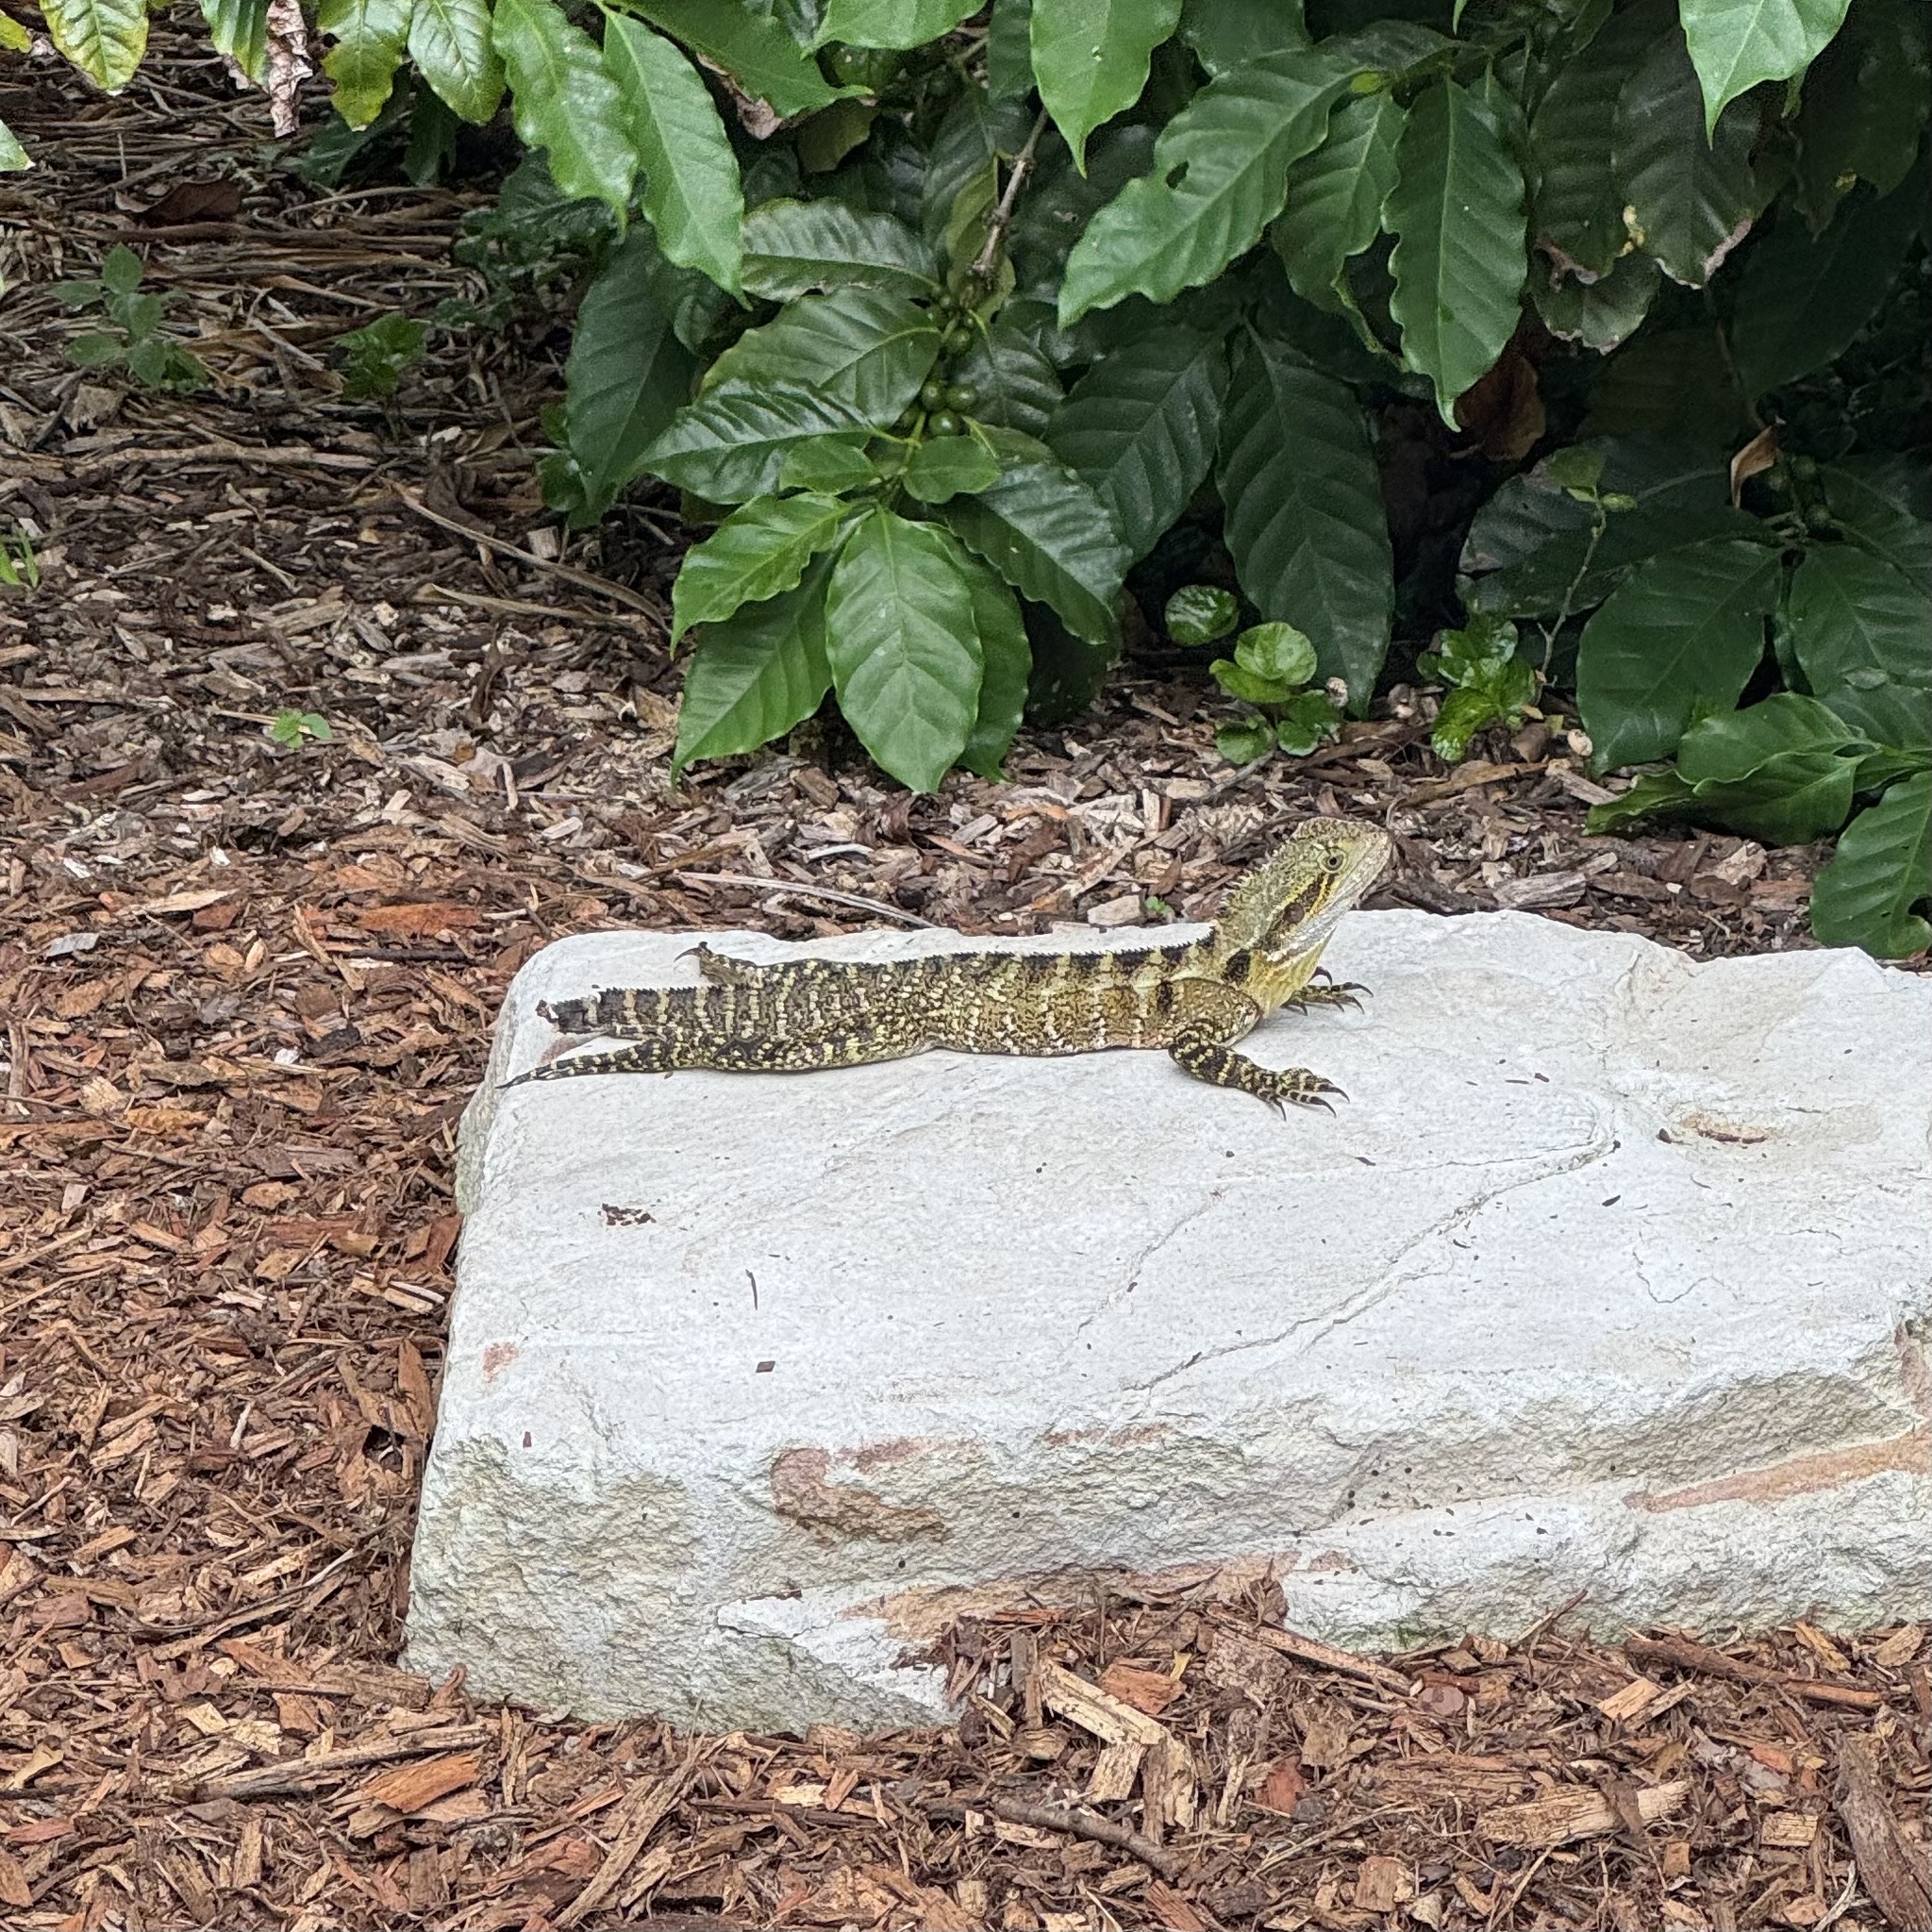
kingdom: Animalia
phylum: Chordata
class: Squamata
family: Agamidae
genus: Intellagama
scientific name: Intellagama lesueurii
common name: Eastern water dragon
